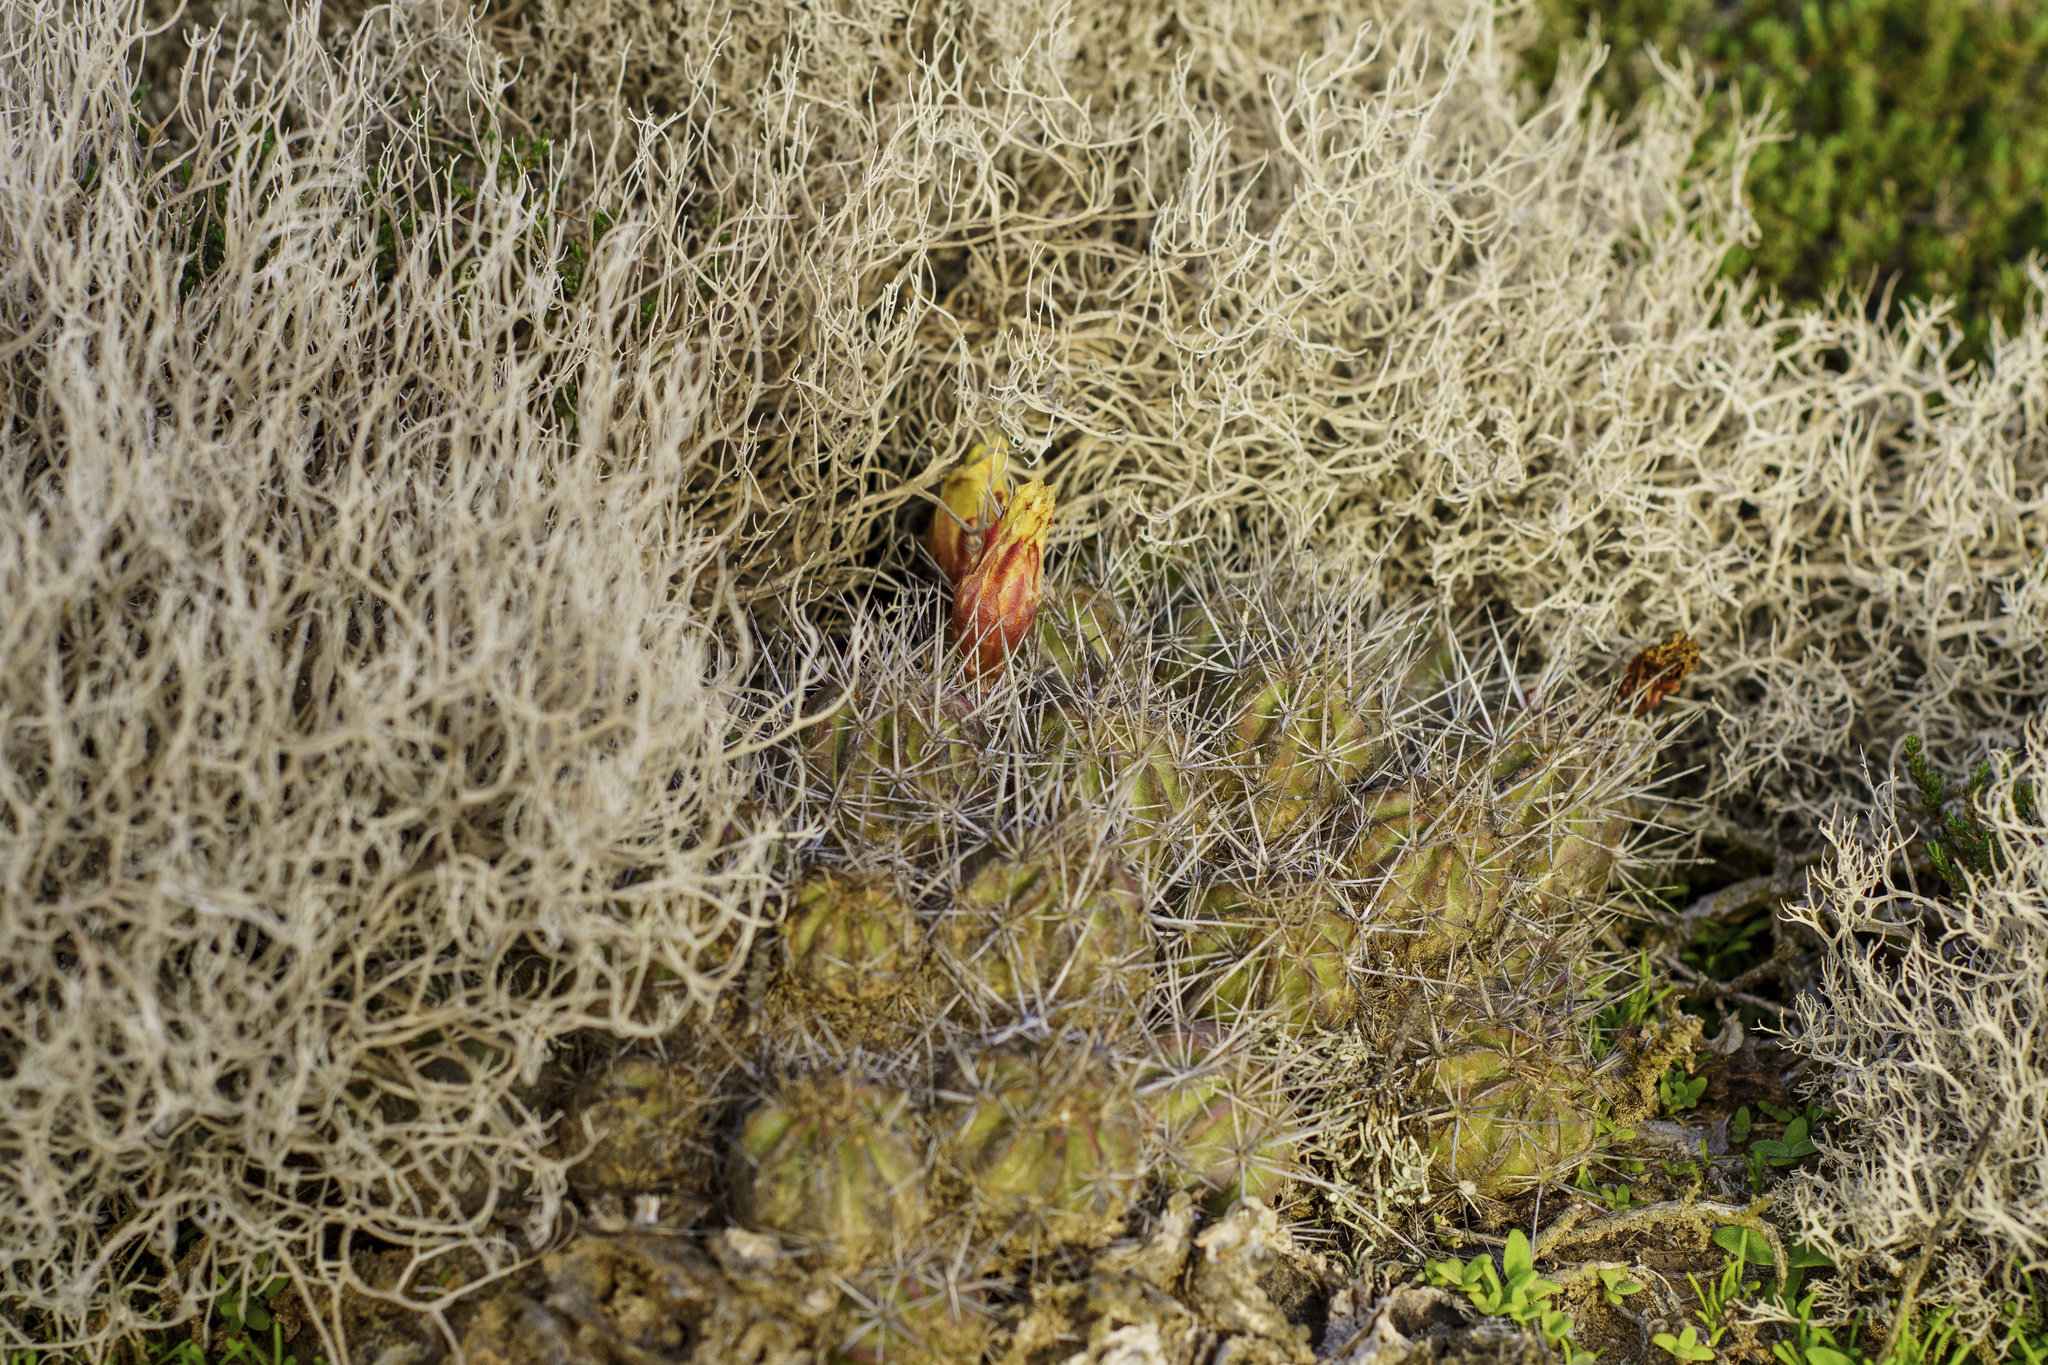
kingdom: Plantae
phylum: Tracheophyta
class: Magnoliopsida
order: Caryophyllales
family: Cactaceae
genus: Echinocereus
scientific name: Echinocereus maritimus
